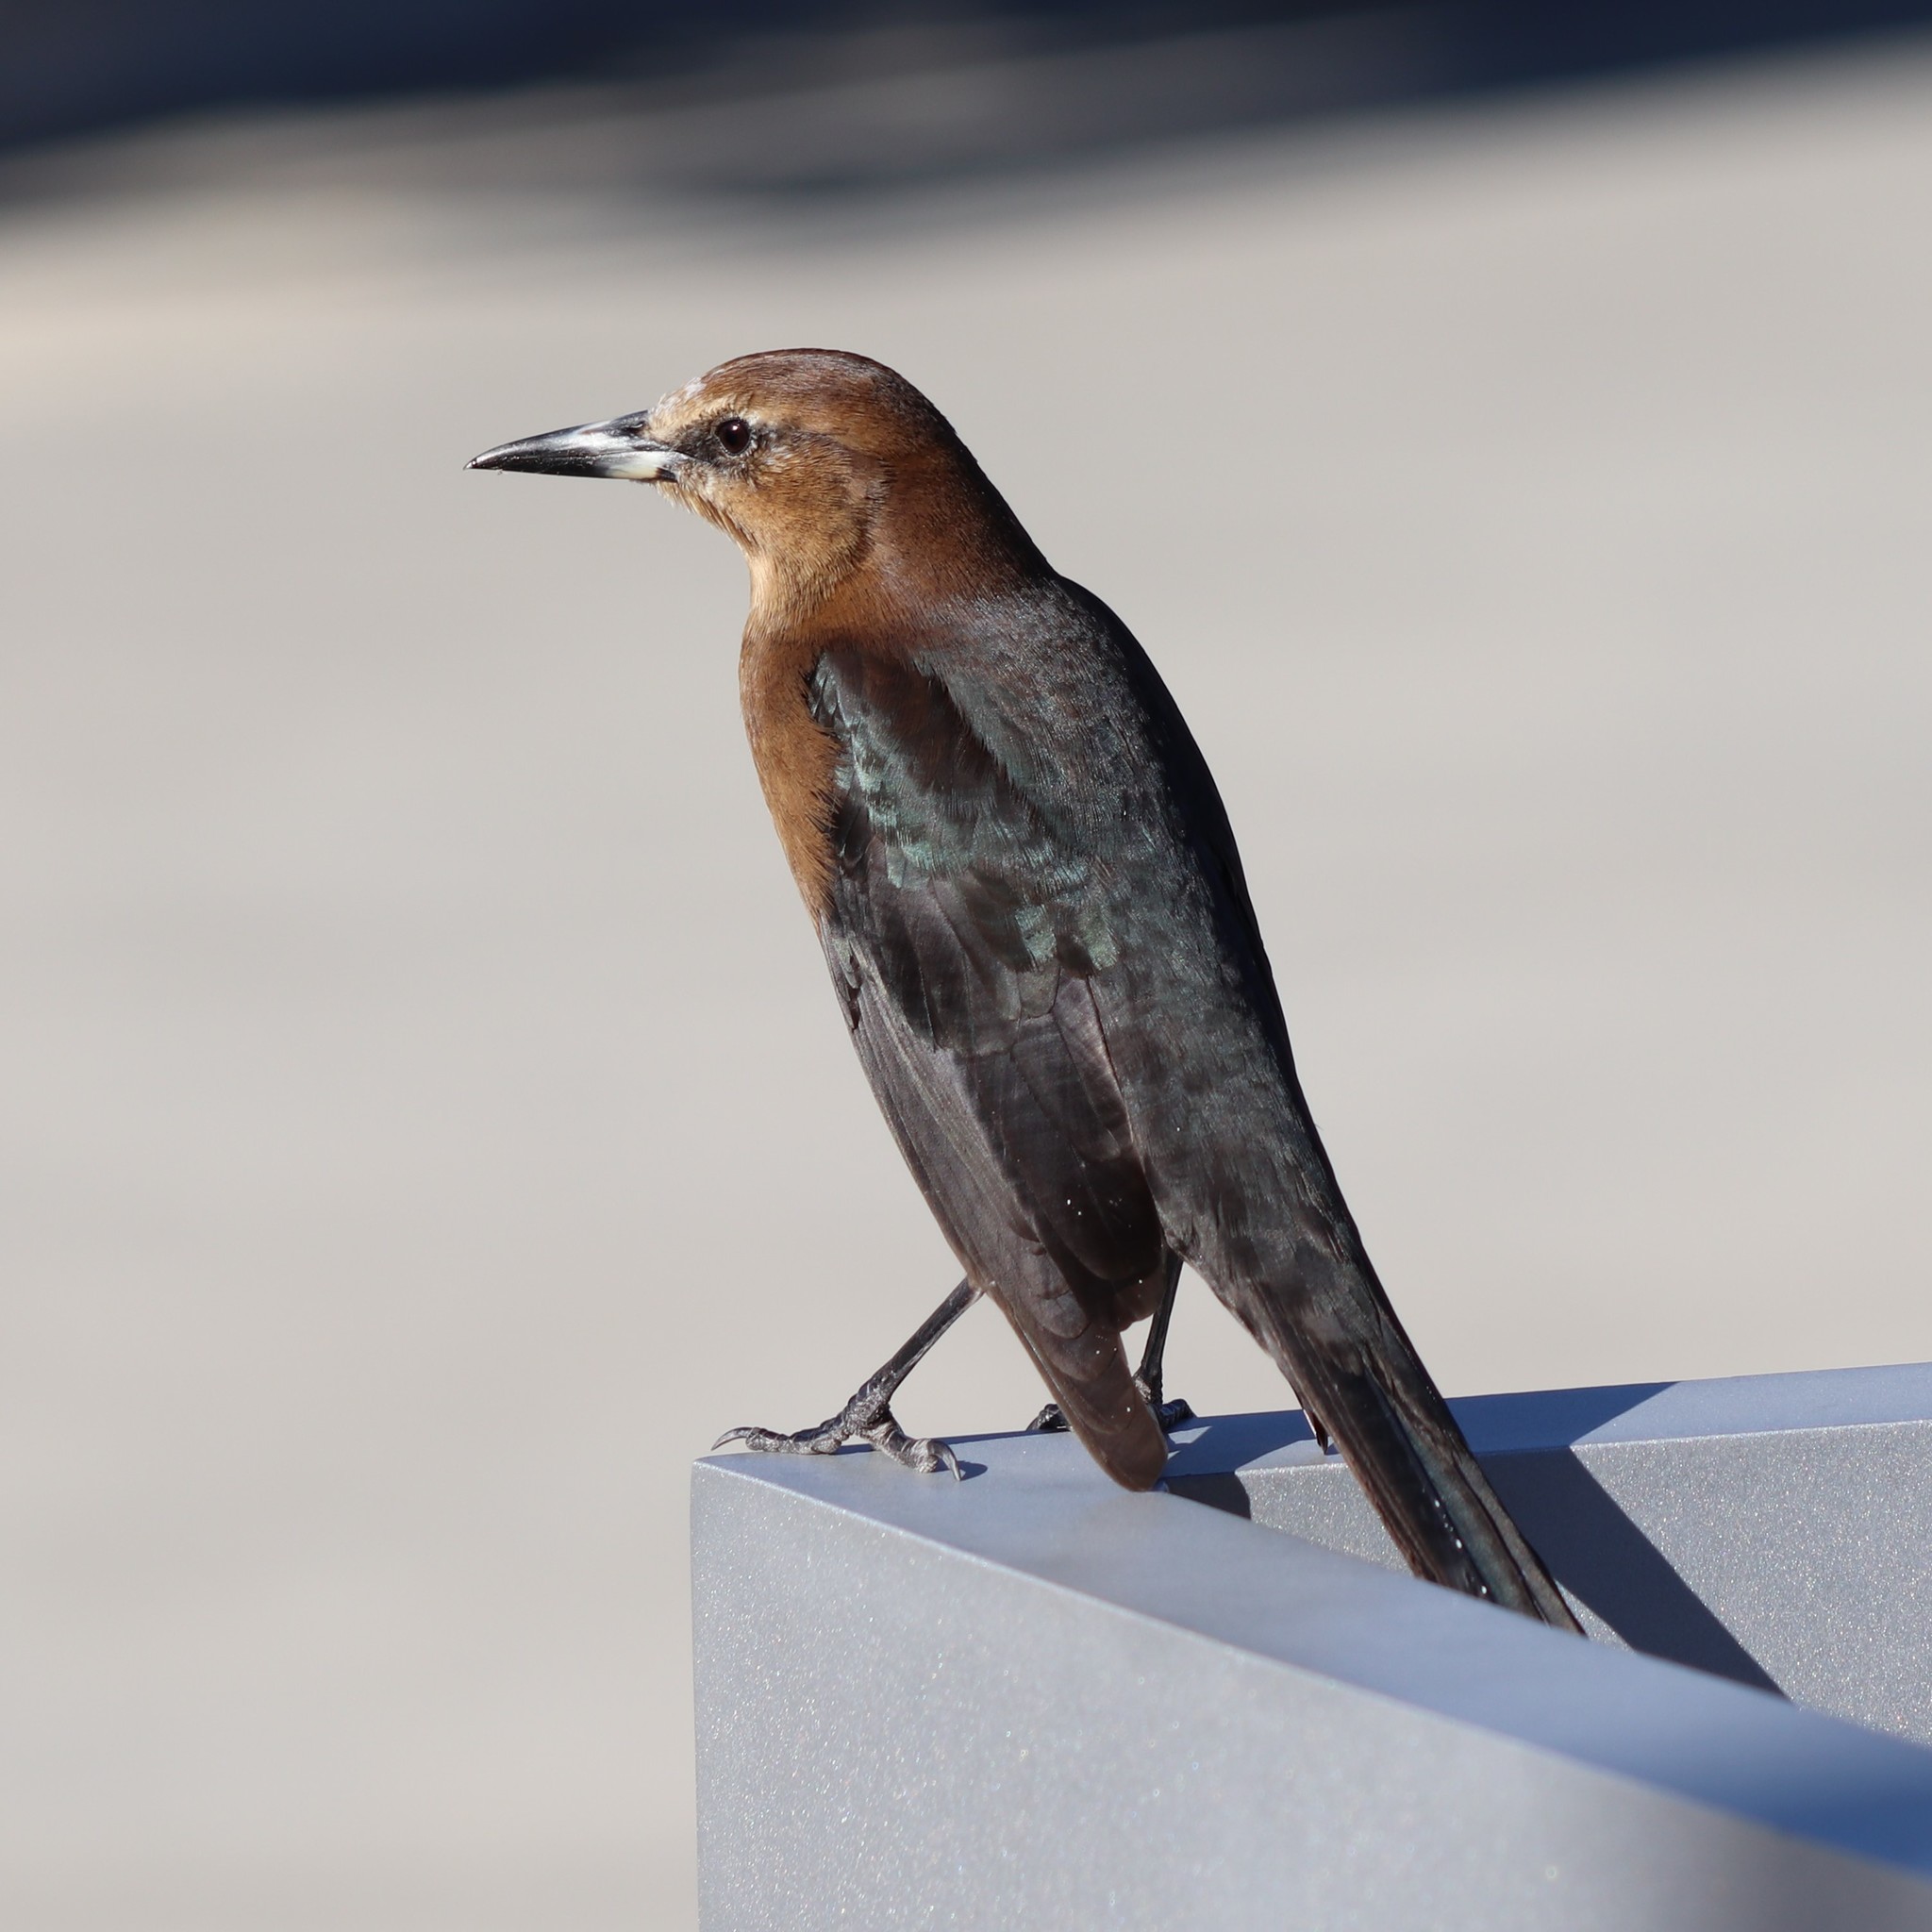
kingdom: Animalia
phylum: Chordata
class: Aves
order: Passeriformes
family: Icteridae
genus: Quiscalus
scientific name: Quiscalus major
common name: Boat-tailed grackle
